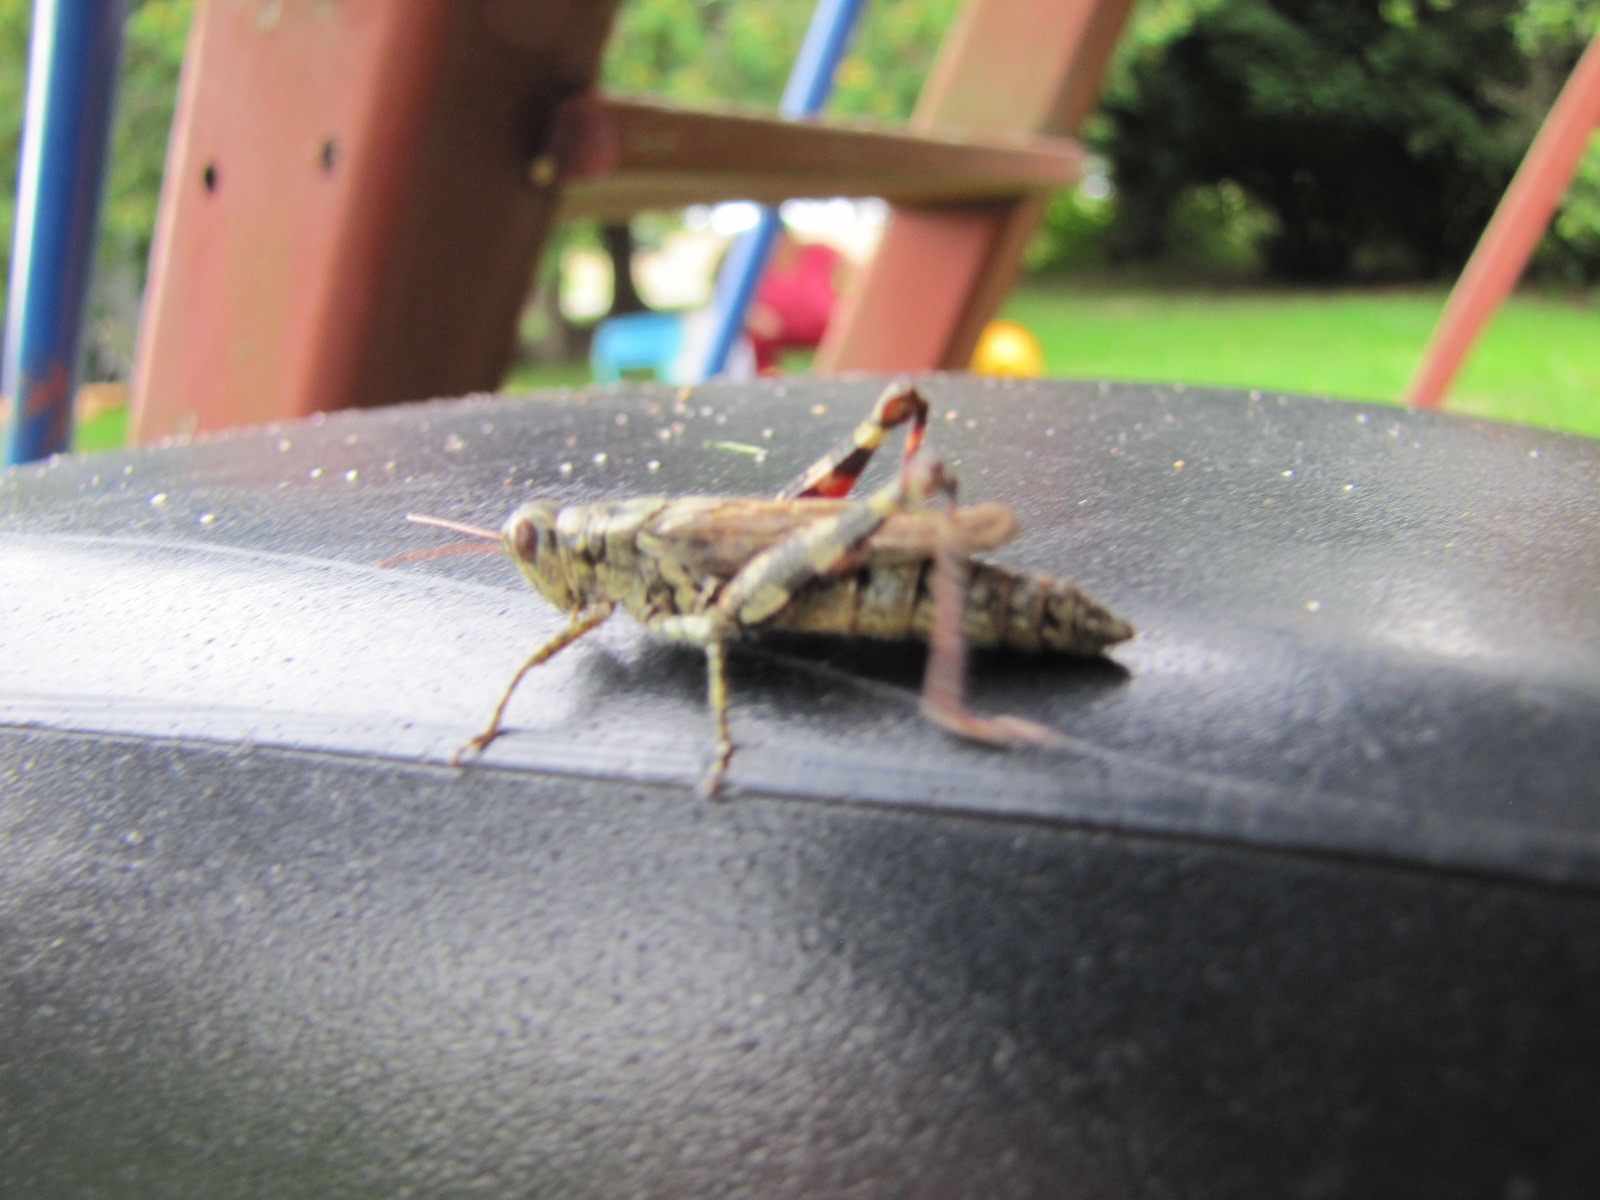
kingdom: Animalia
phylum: Arthropoda
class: Insecta
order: Orthoptera
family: Acrididae
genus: Melanoplus
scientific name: Melanoplus punctulatus
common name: Pine-tree spur-throat grasshopper
